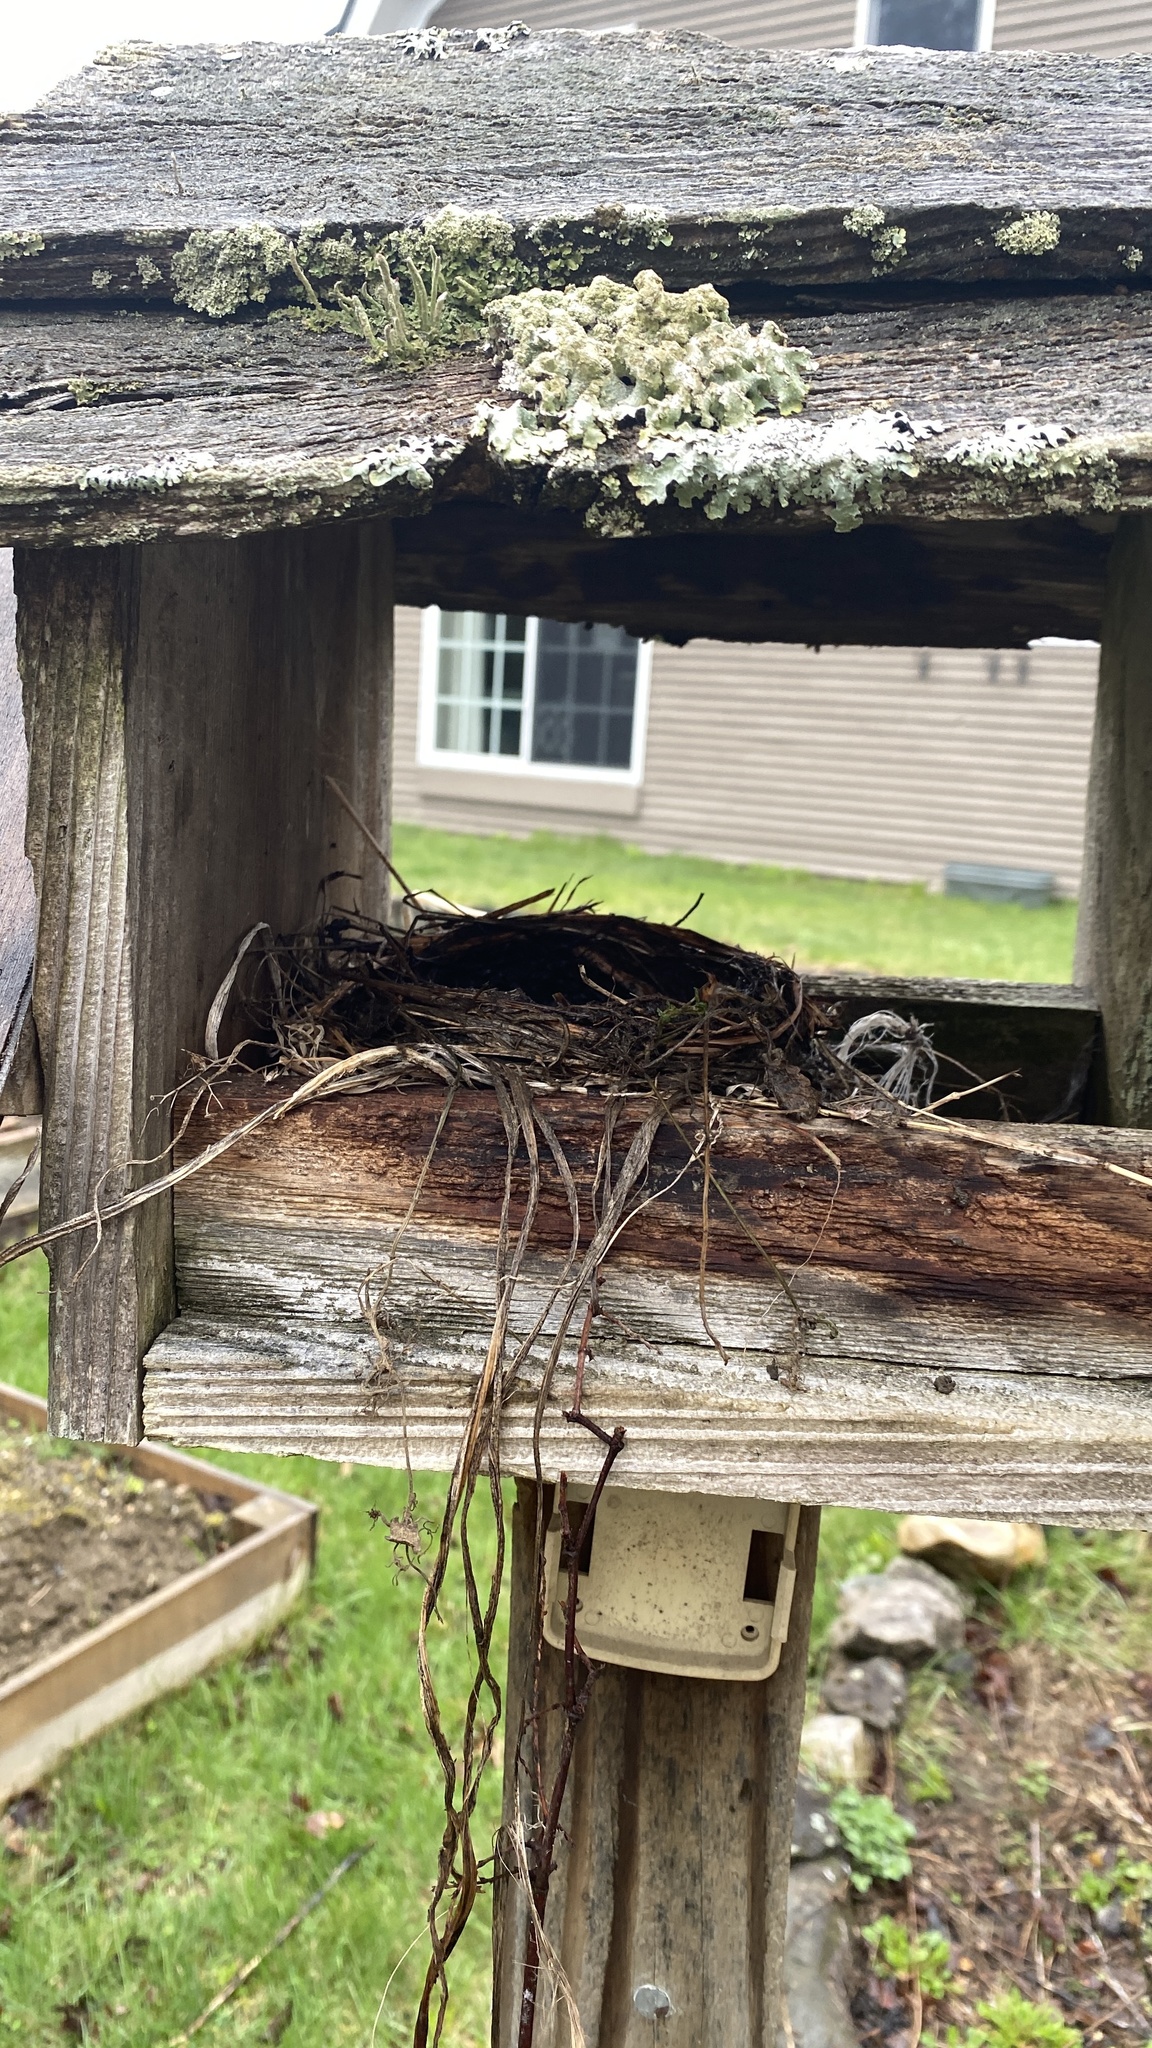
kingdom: Animalia
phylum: Chordata
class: Aves
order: Passeriformes
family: Turdidae
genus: Turdus
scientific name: Turdus migratorius
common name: American robin
